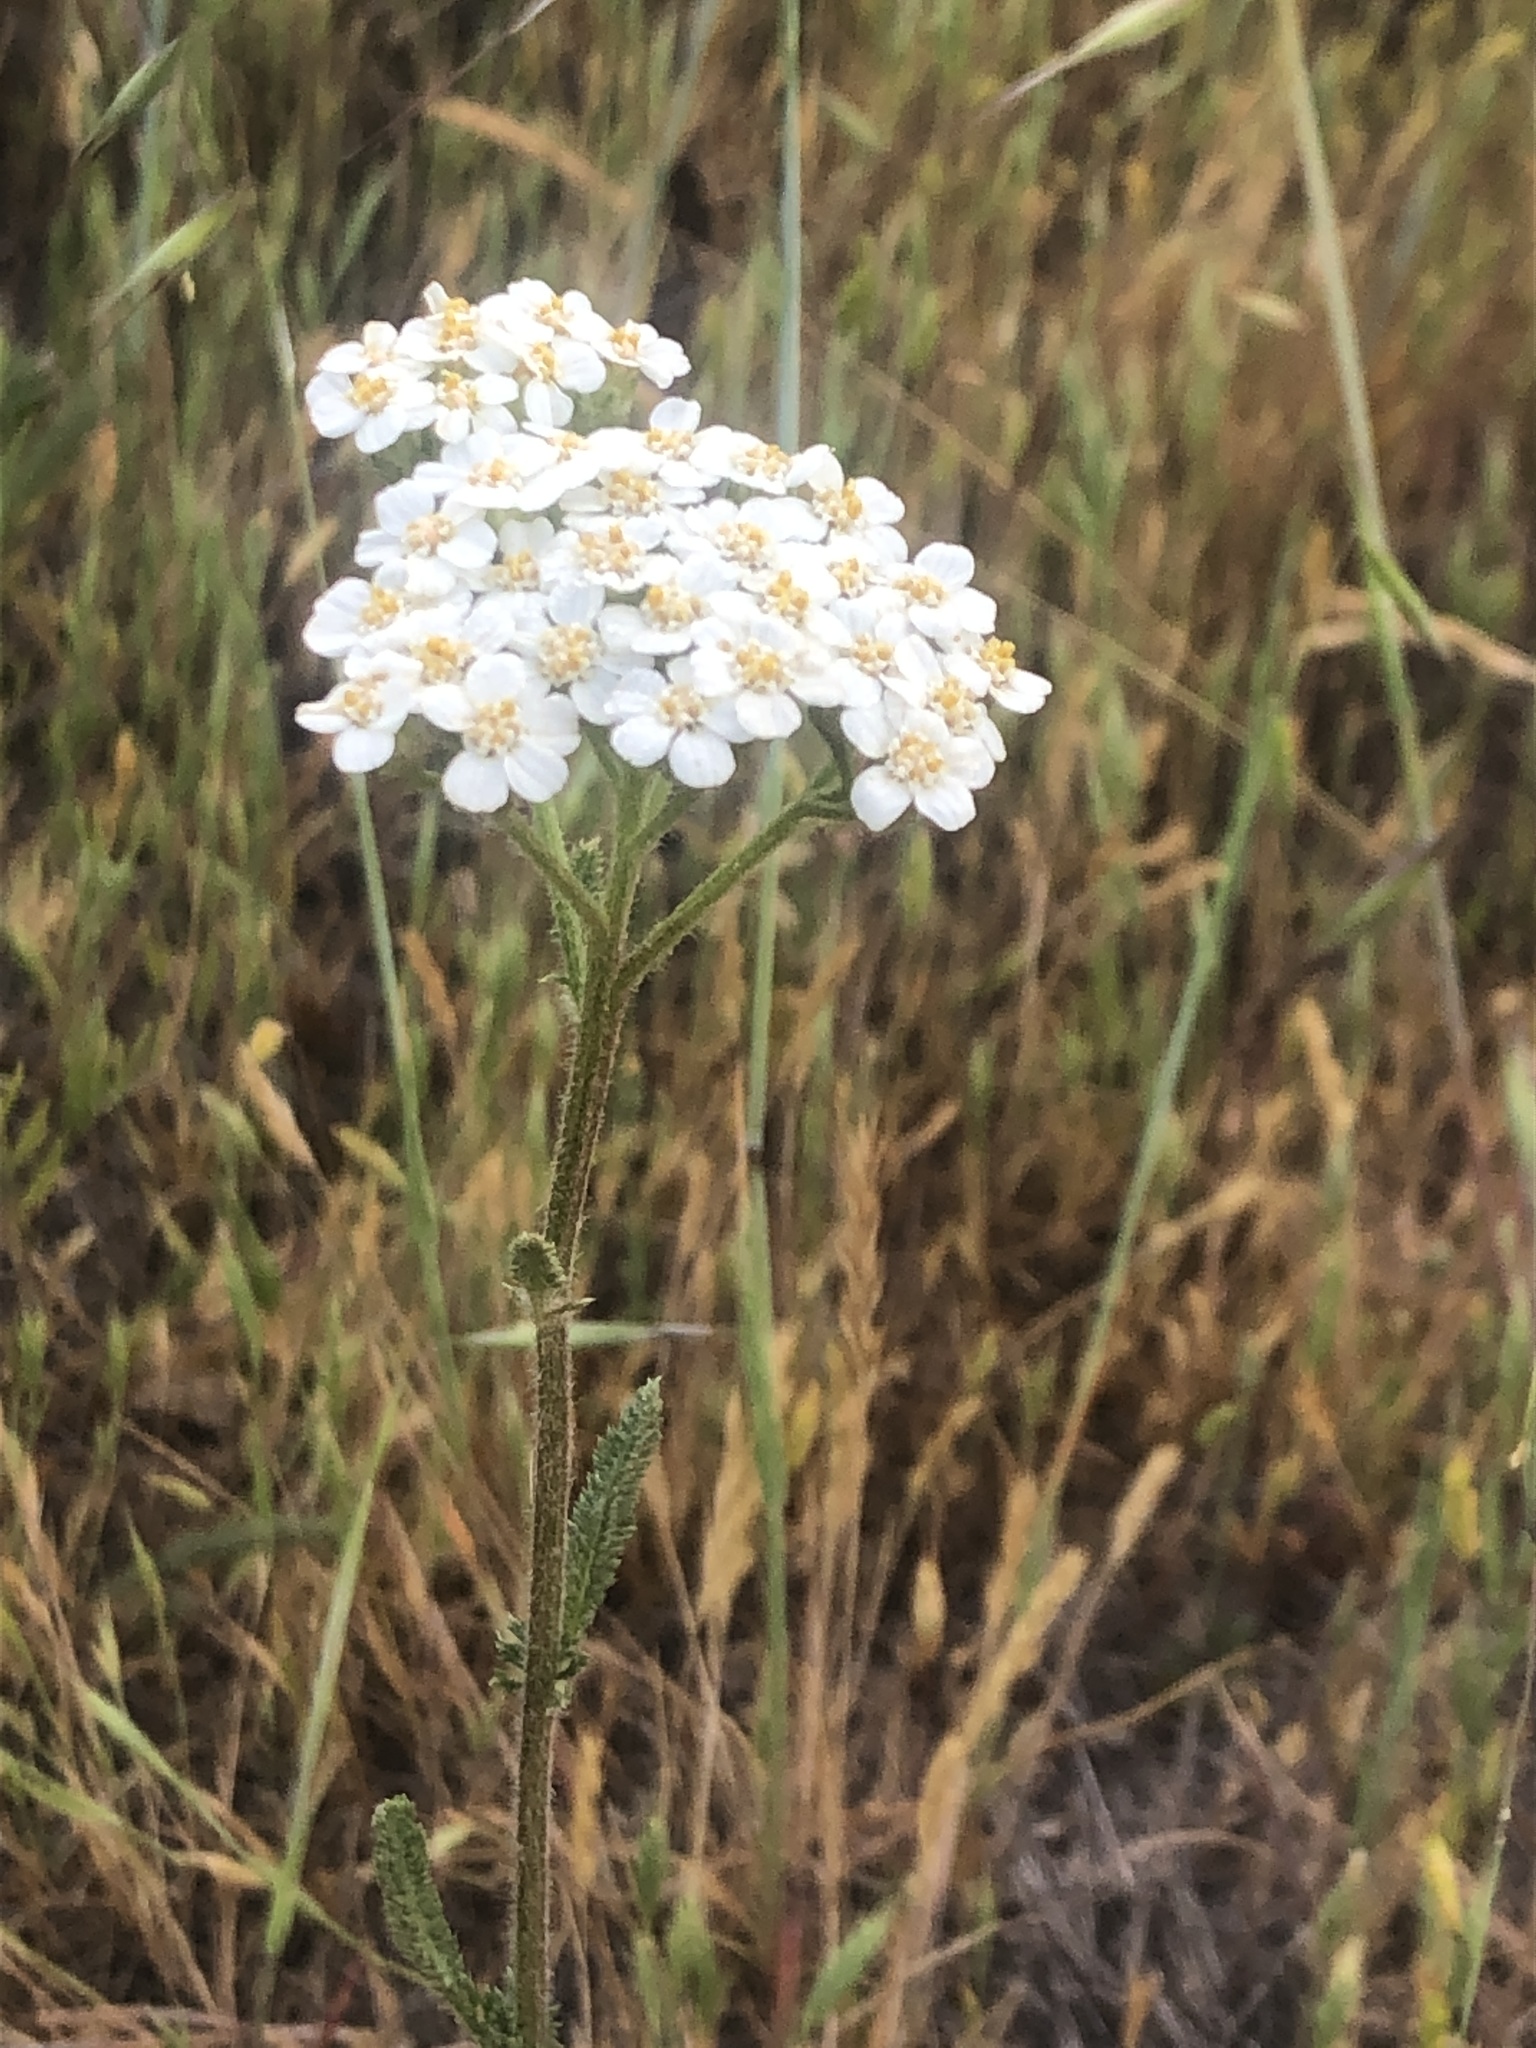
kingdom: Plantae
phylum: Tracheophyta
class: Magnoliopsida
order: Asterales
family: Asteraceae
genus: Achillea
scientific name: Achillea millefolium
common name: Yarrow
